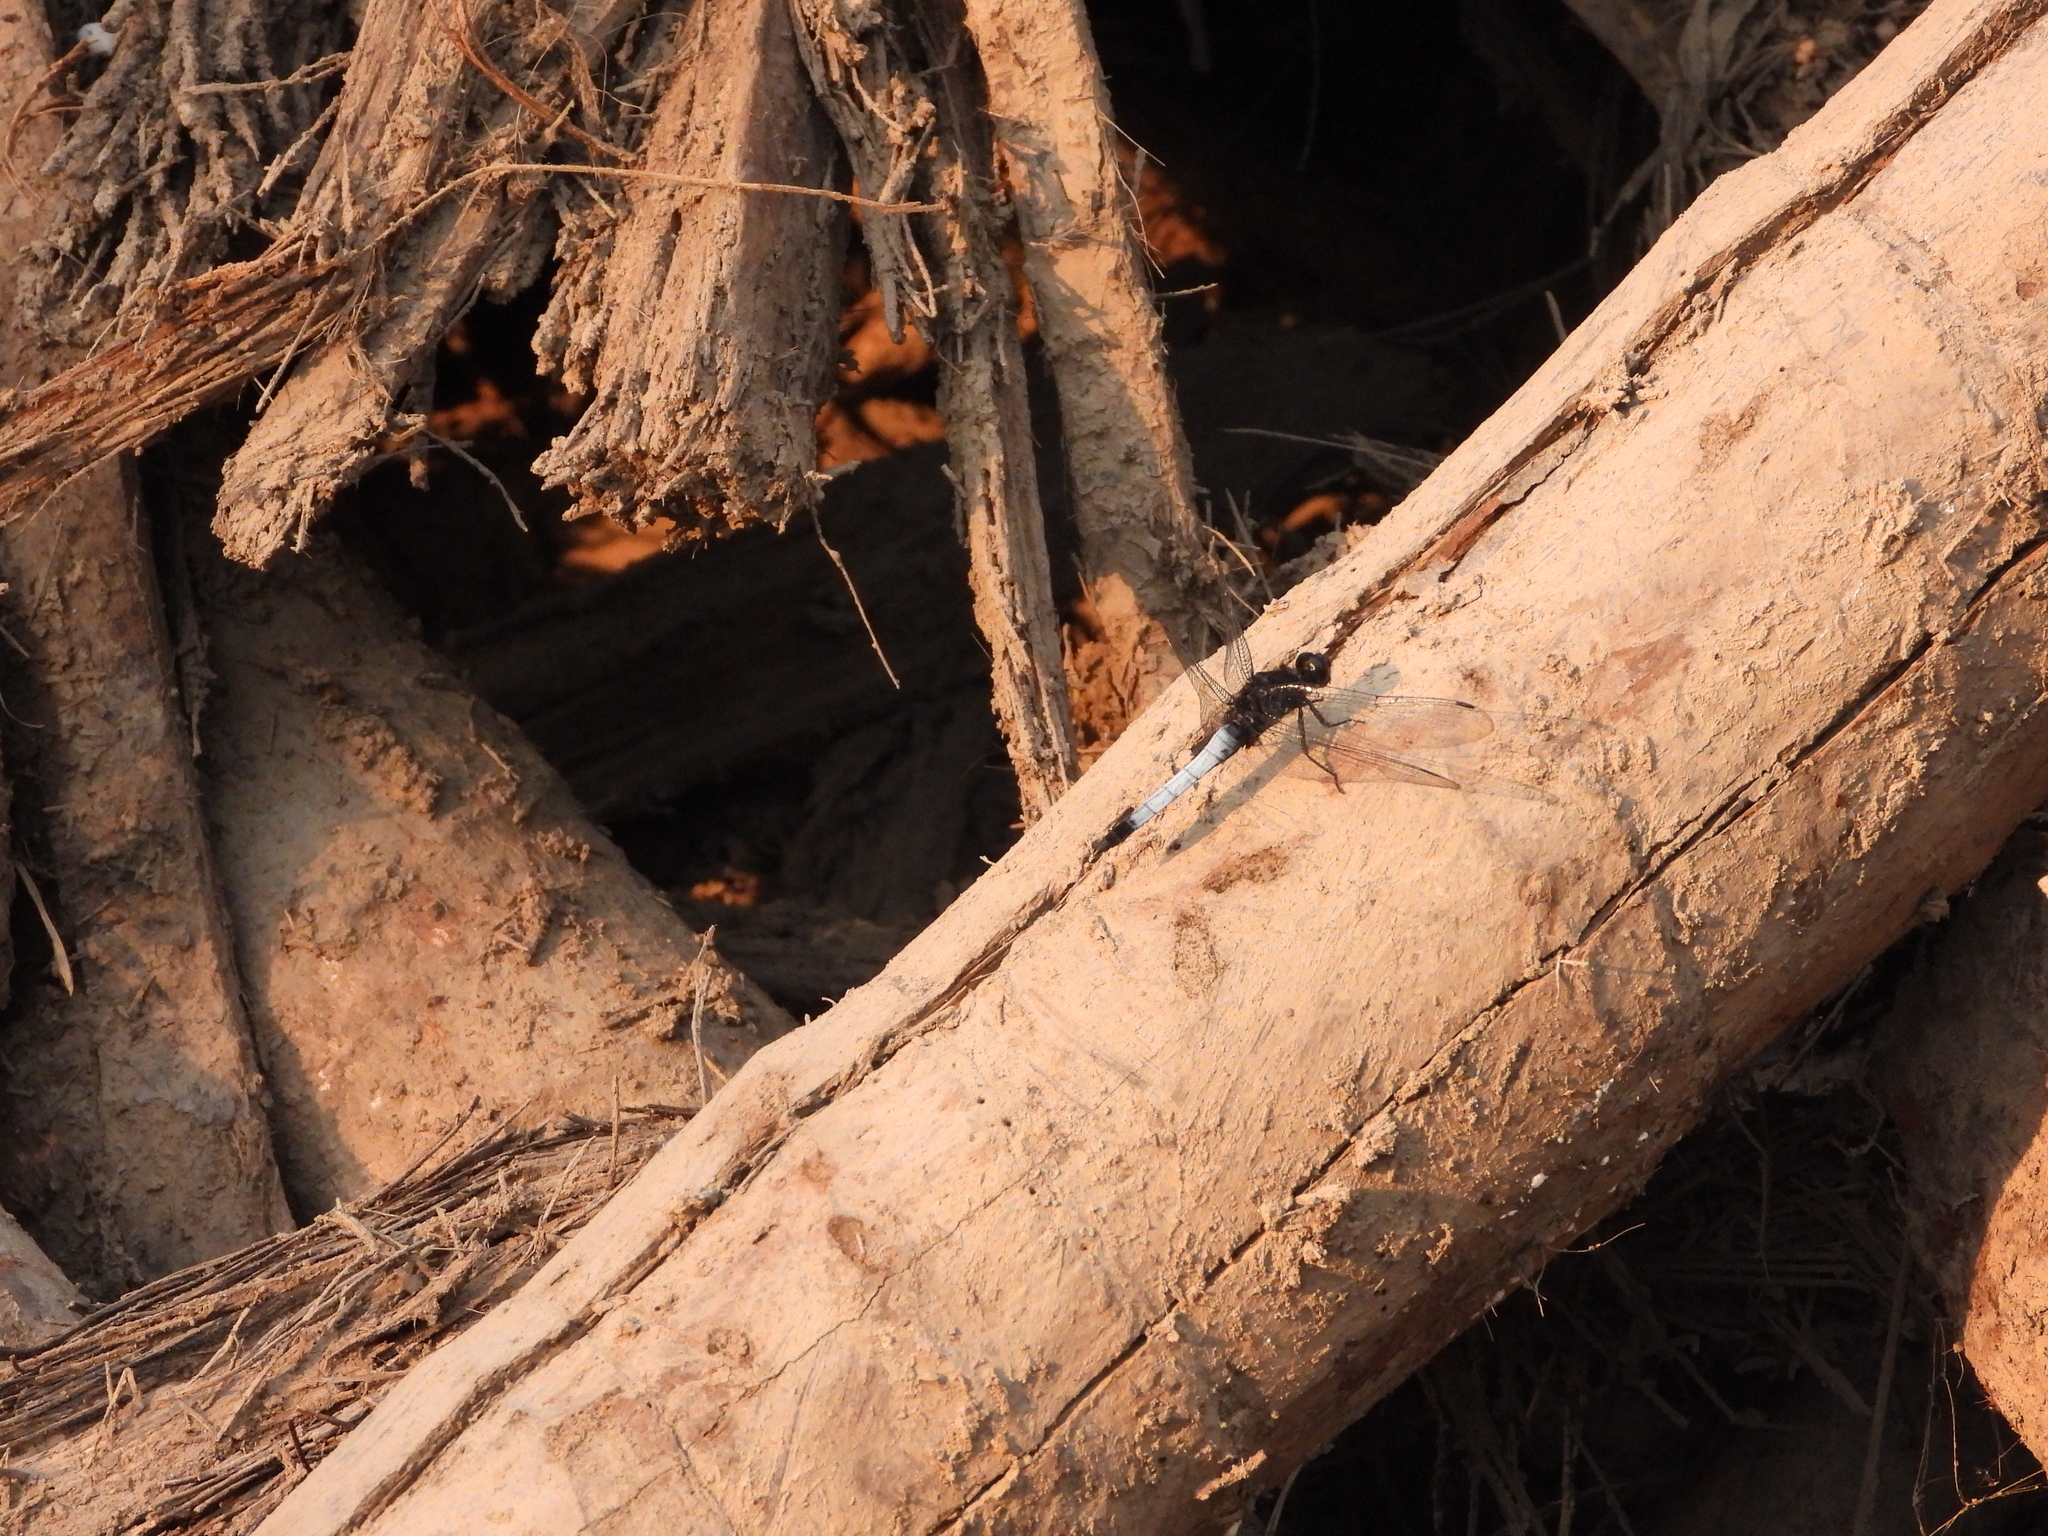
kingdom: Animalia
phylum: Arthropoda
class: Insecta
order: Odonata
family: Libellulidae
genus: Orthetrum
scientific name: Orthetrum triangulare
